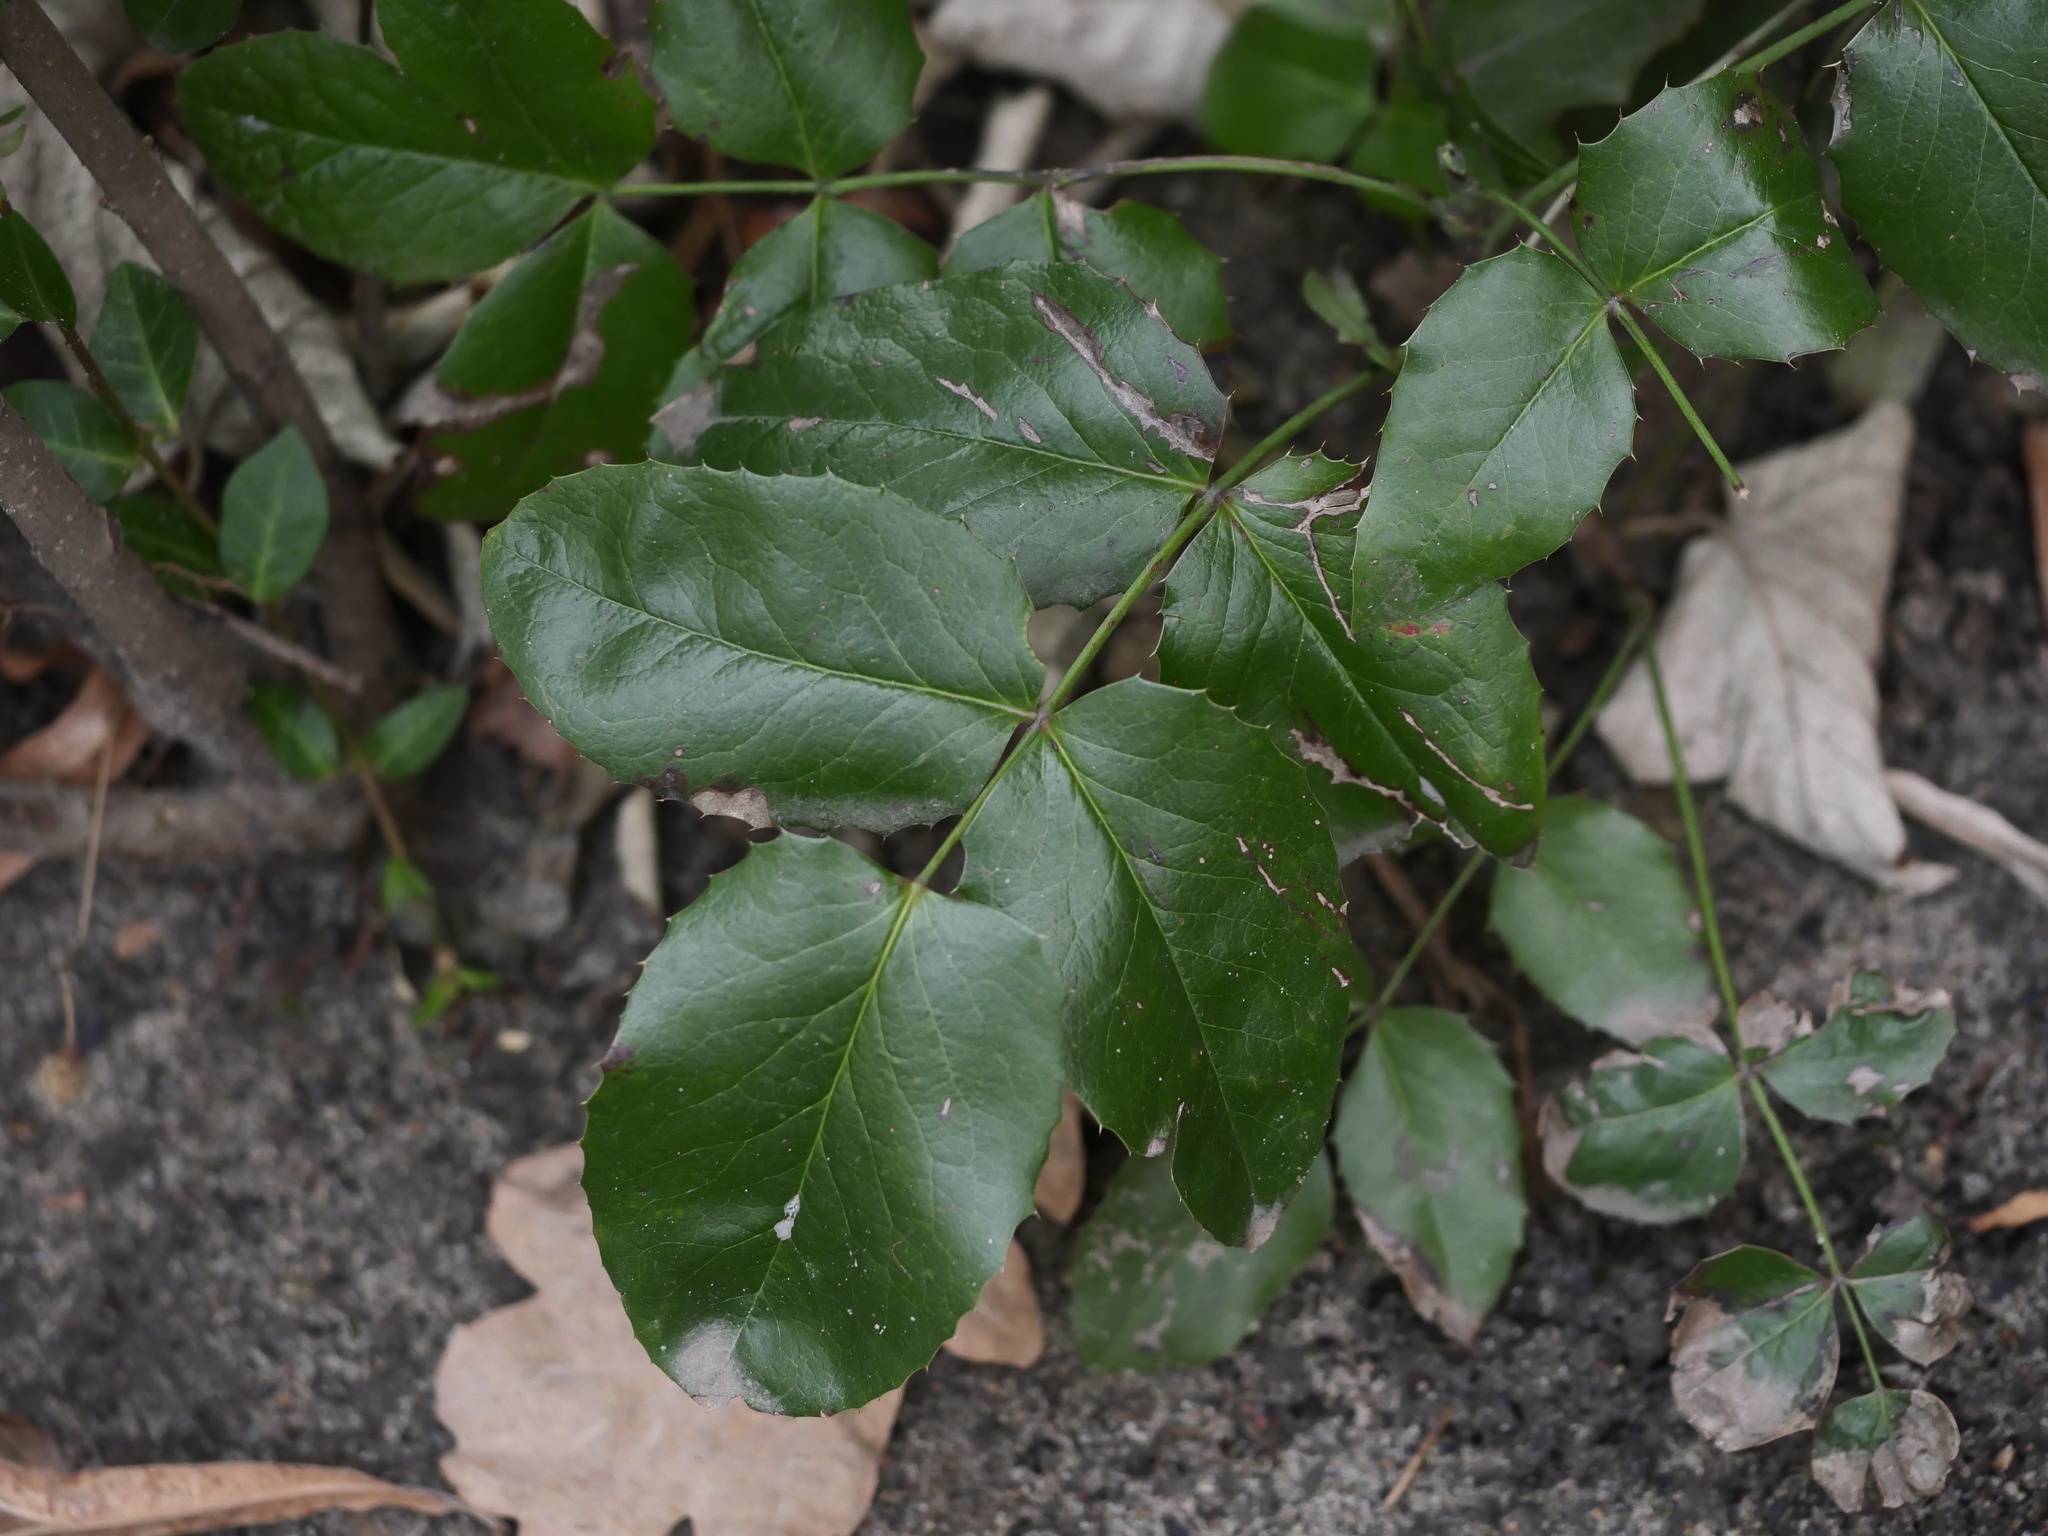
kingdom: Plantae
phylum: Tracheophyta
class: Magnoliopsida
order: Ranunculales
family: Berberidaceae
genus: Mahonia
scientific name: Mahonia aquifolium
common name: Oregon-grape
